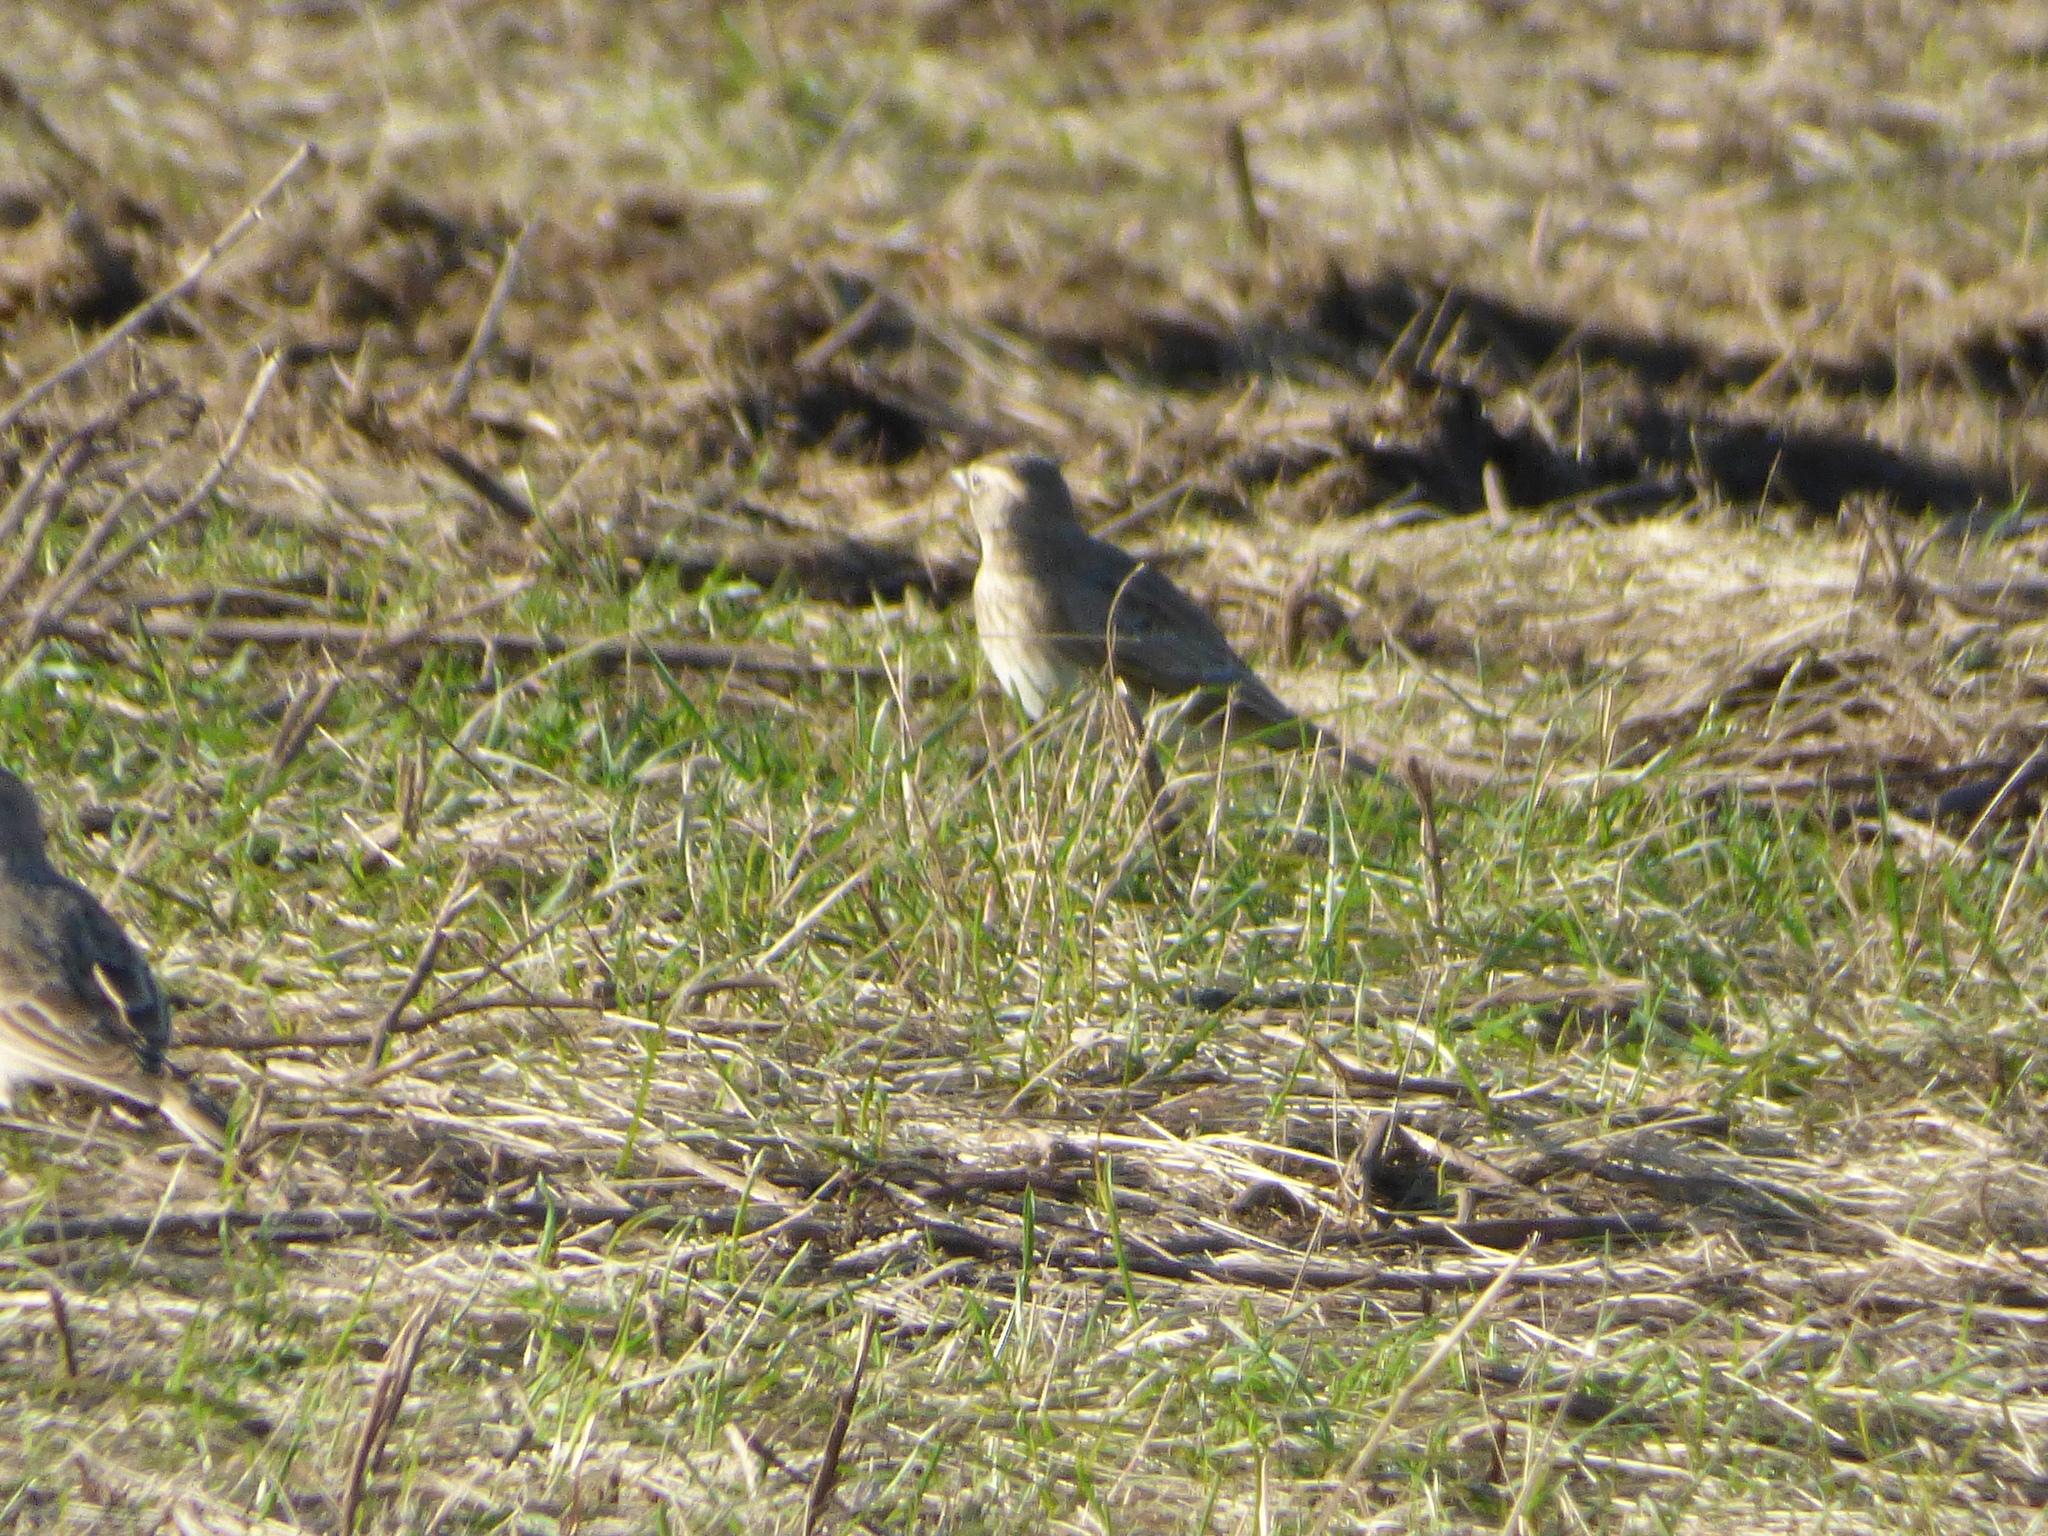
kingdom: Animalia
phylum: Chordata
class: Aves
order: Passeriformes
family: Alaudidae
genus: Eremophila
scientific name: Eremophila alpestris
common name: Horned lark
